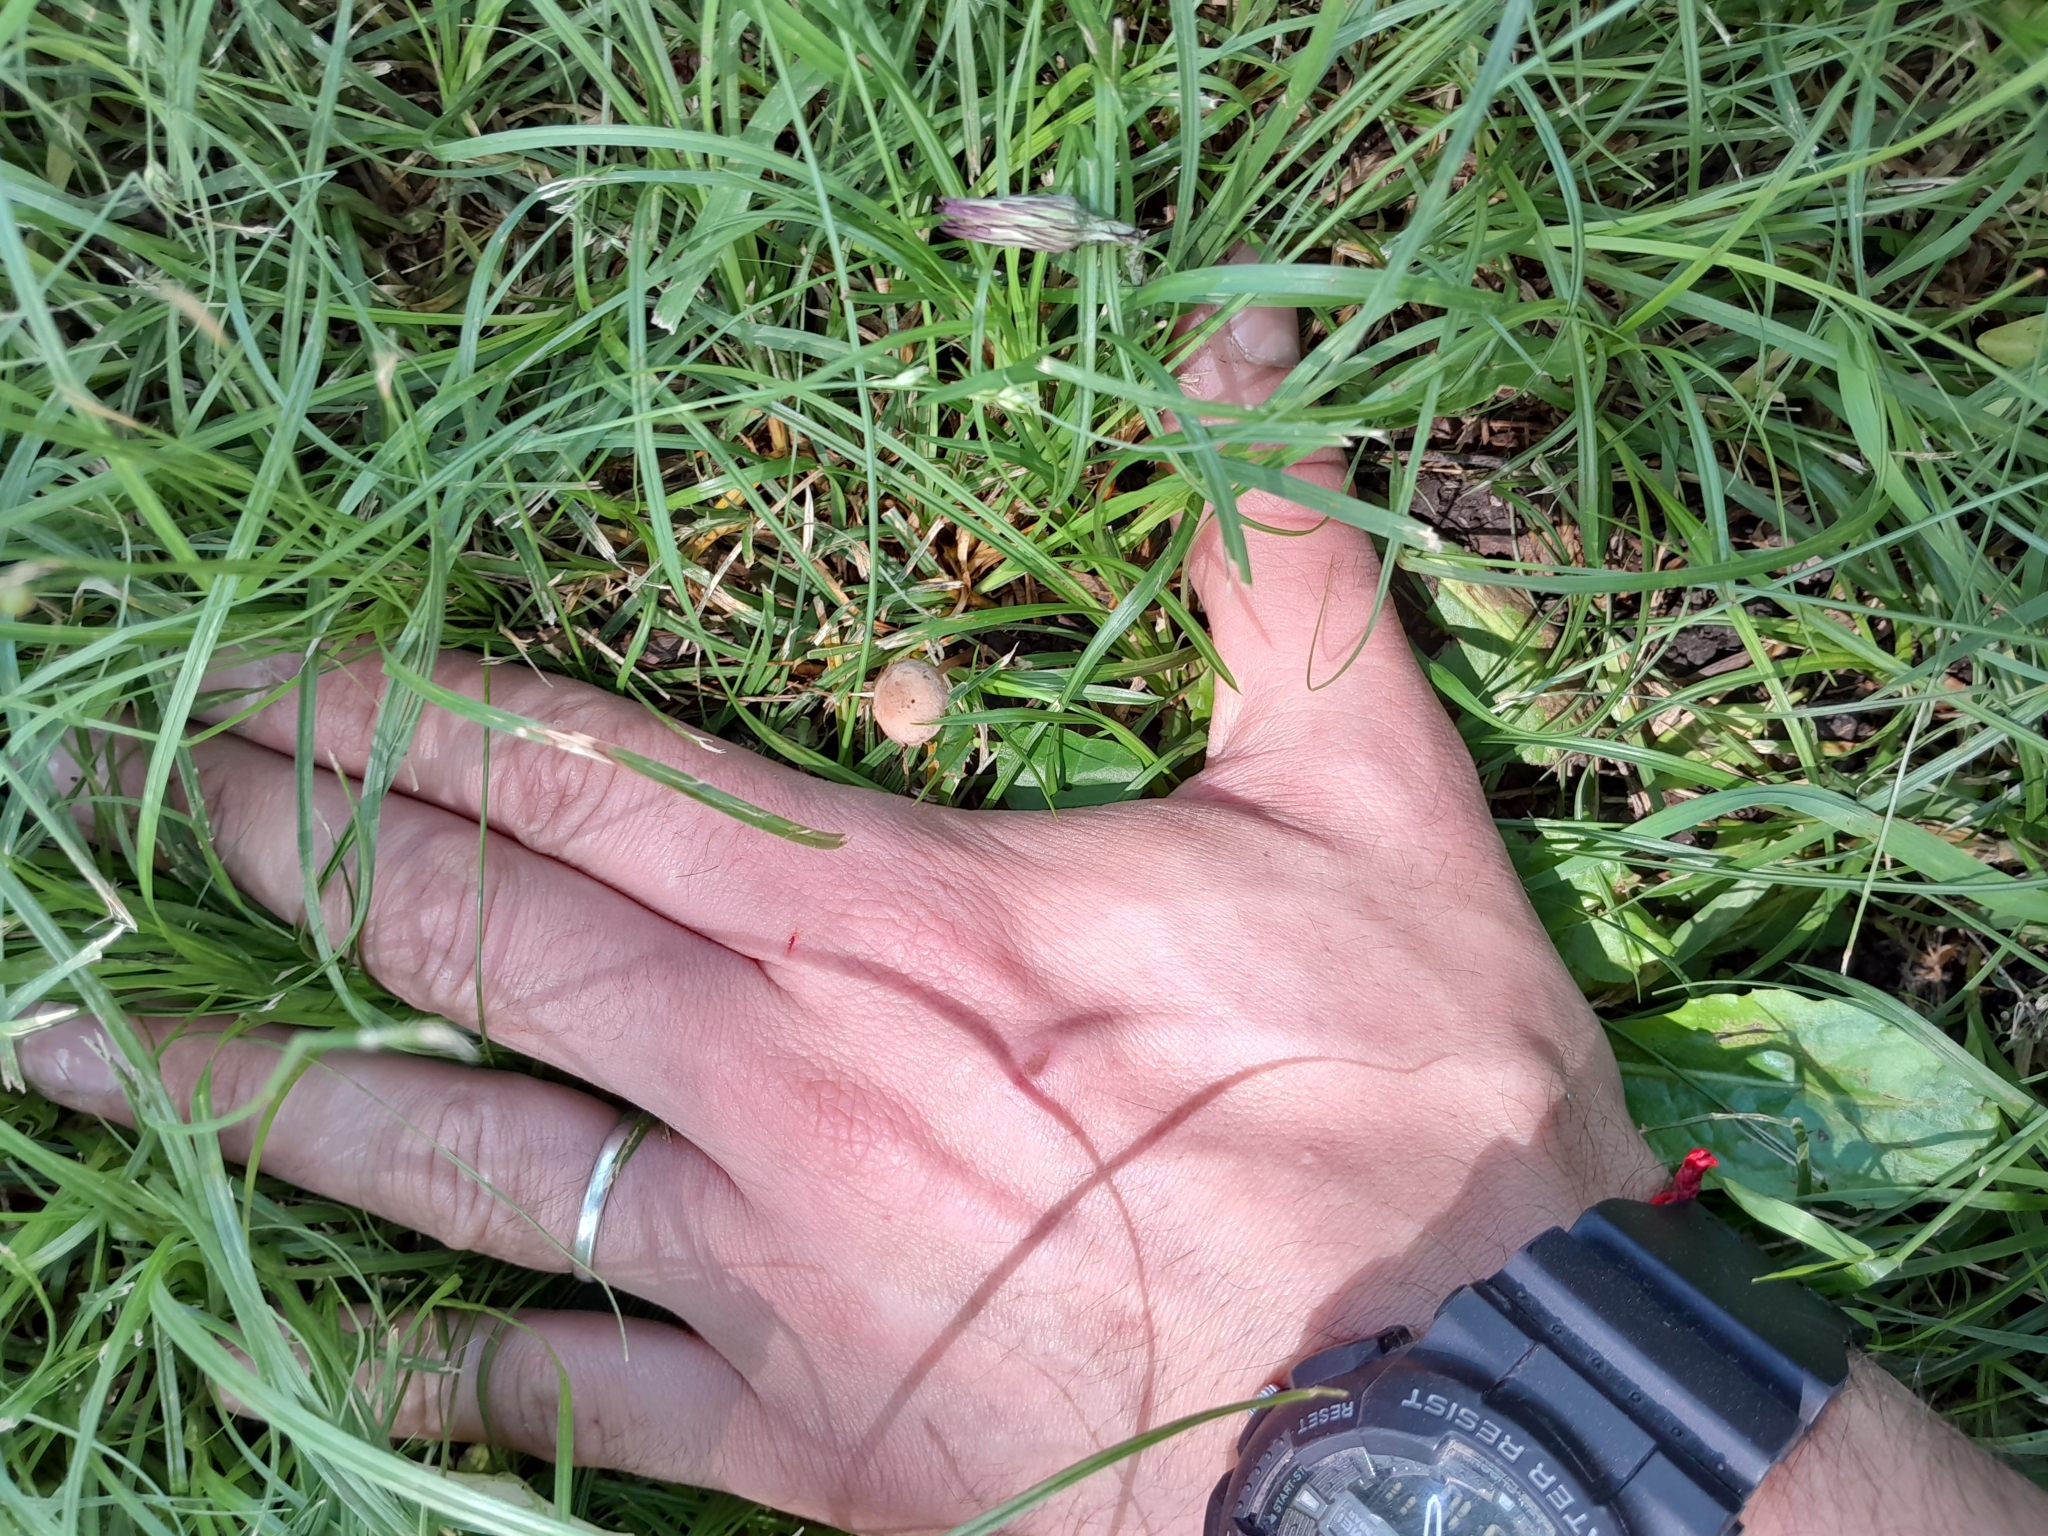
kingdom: Fungi
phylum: Basidiomycota
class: Agaricomycetes
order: Agaricales
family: Strophariaceae
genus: Agrocybe
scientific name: Agrocybe pediades
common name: Common fieldcap
